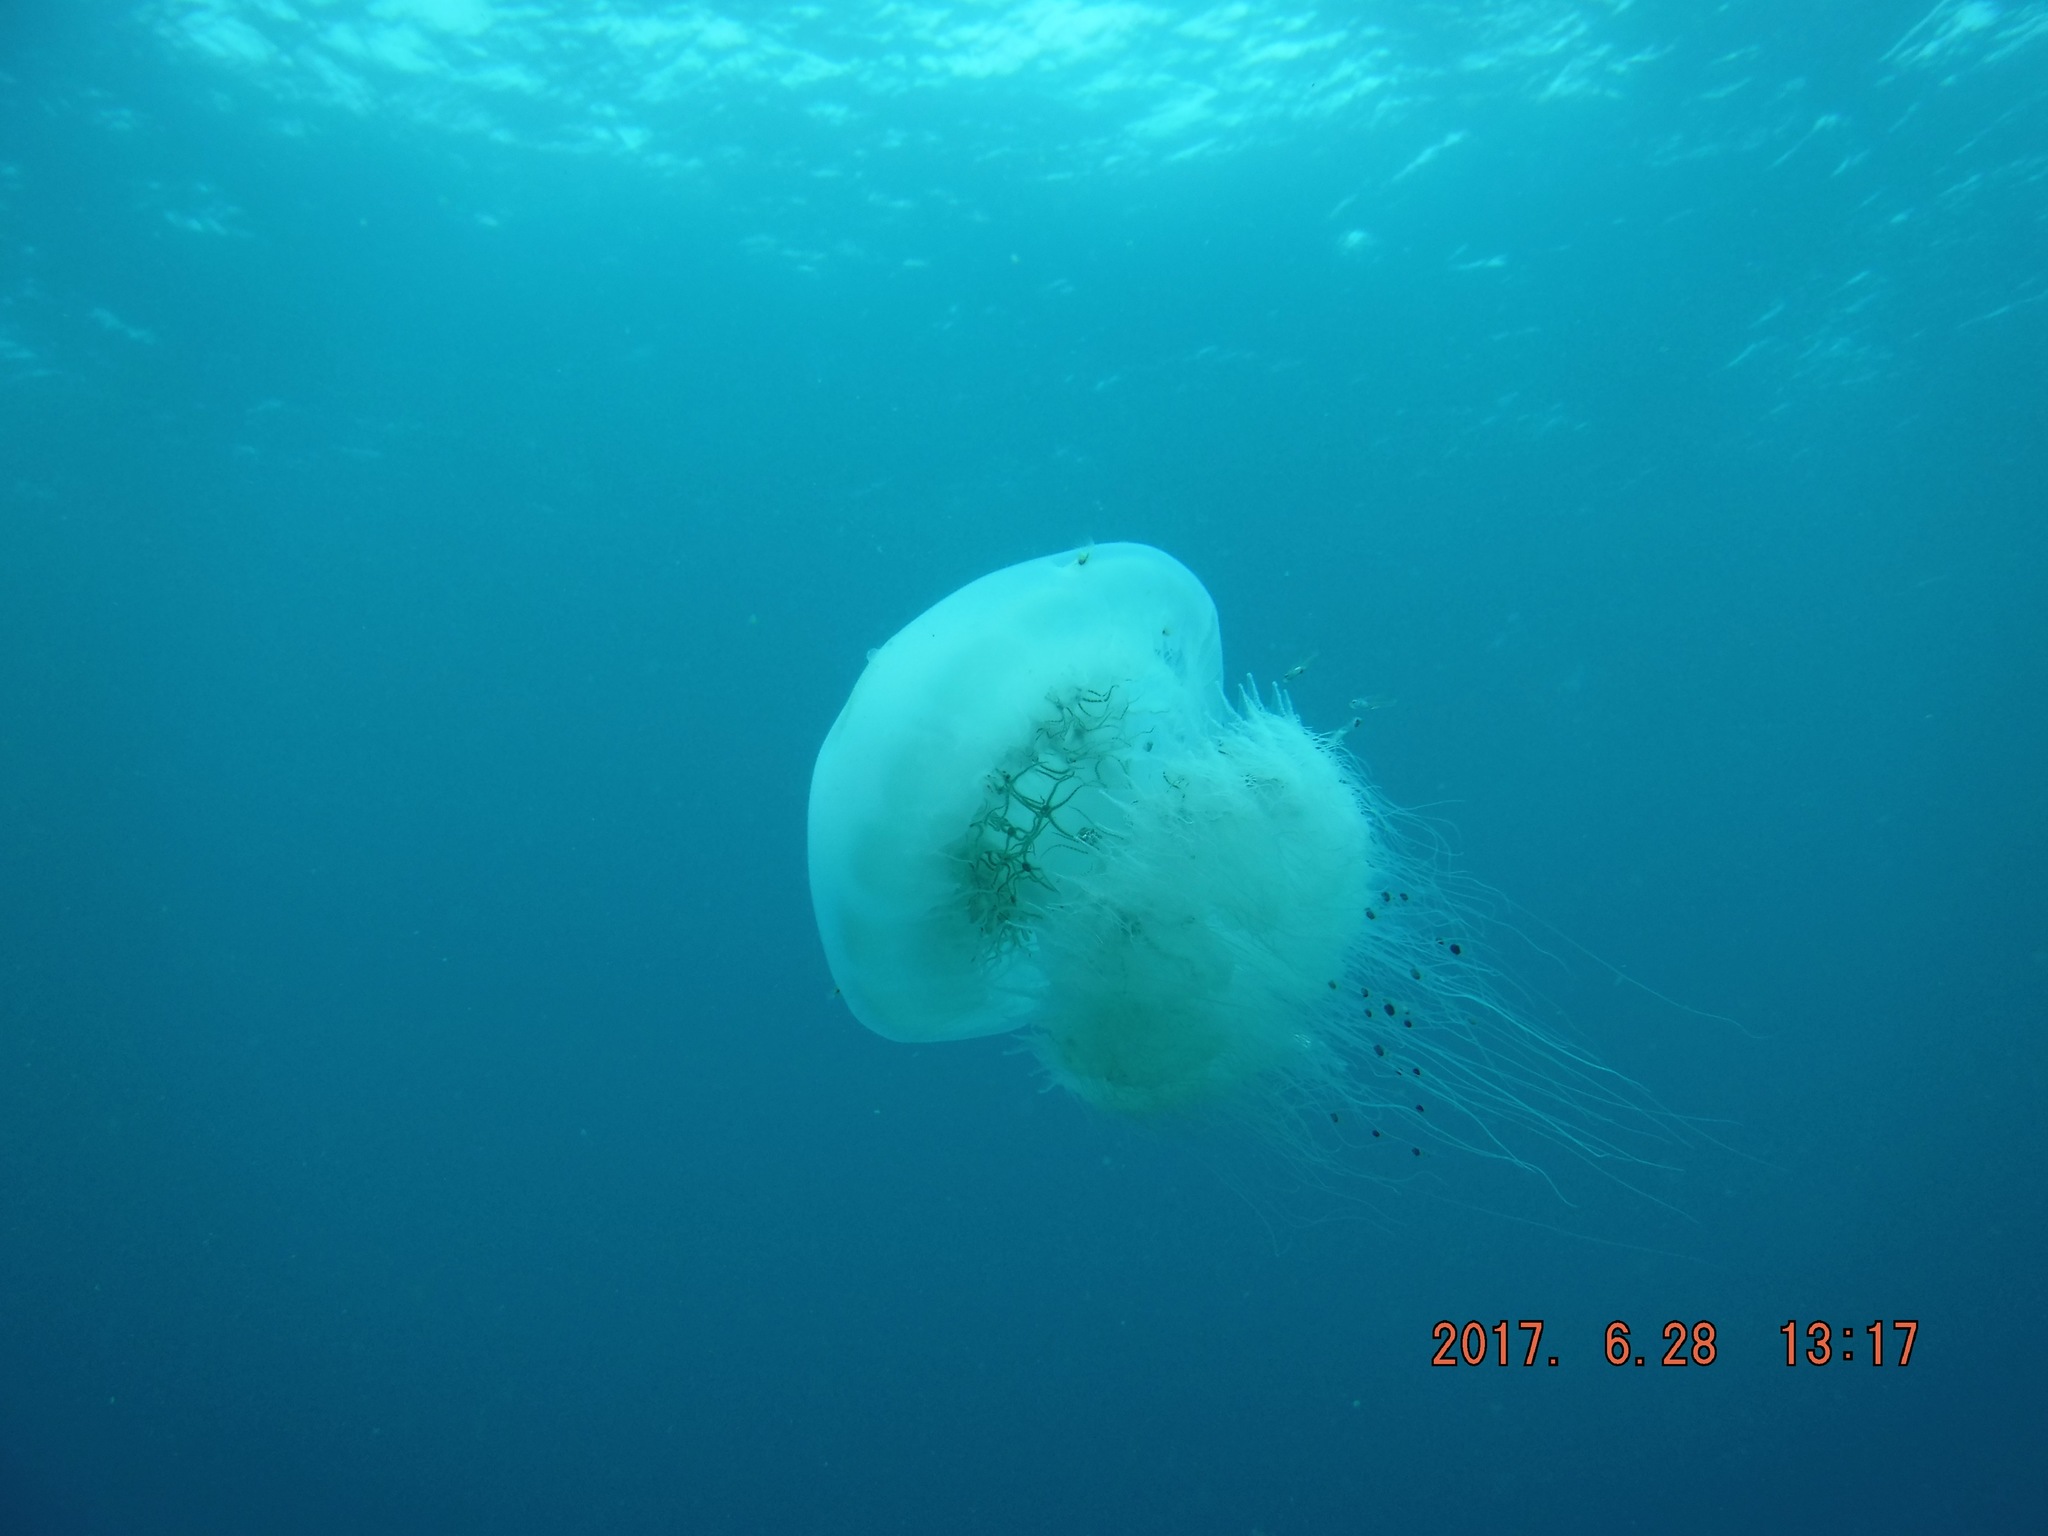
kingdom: Animalia
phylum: Echinodermata
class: Ophiuroidea
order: Amphilepidida
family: Ophiotrichidae
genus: Ophiocnemis
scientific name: Ophiocnemis marmorata
